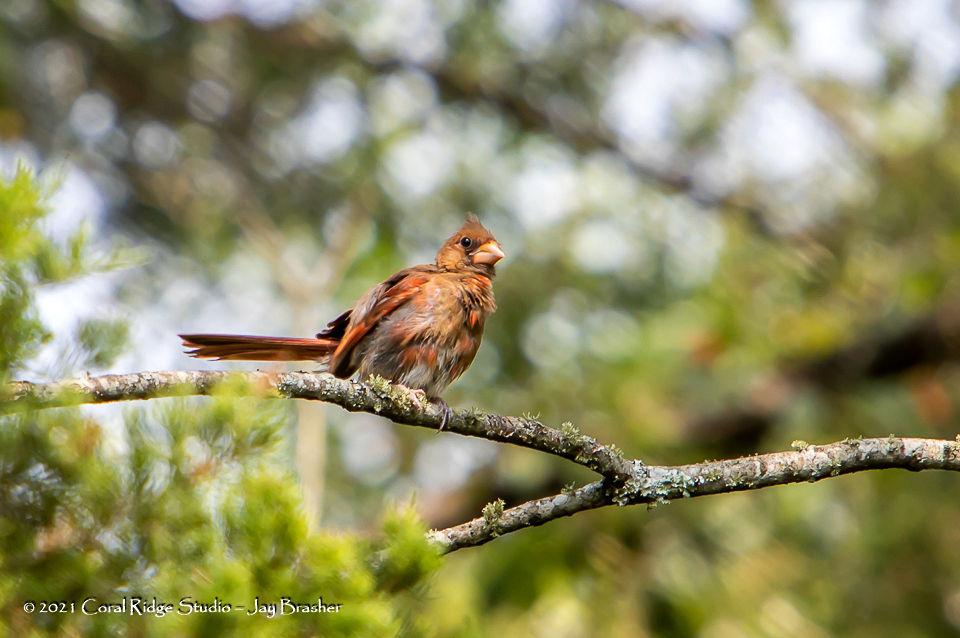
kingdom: Animalia
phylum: Chordata
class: Aves
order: Passeriformes
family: Cardinalidae
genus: Cardinalis
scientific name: Cardinalis cardinalis
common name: Northern cardinal
